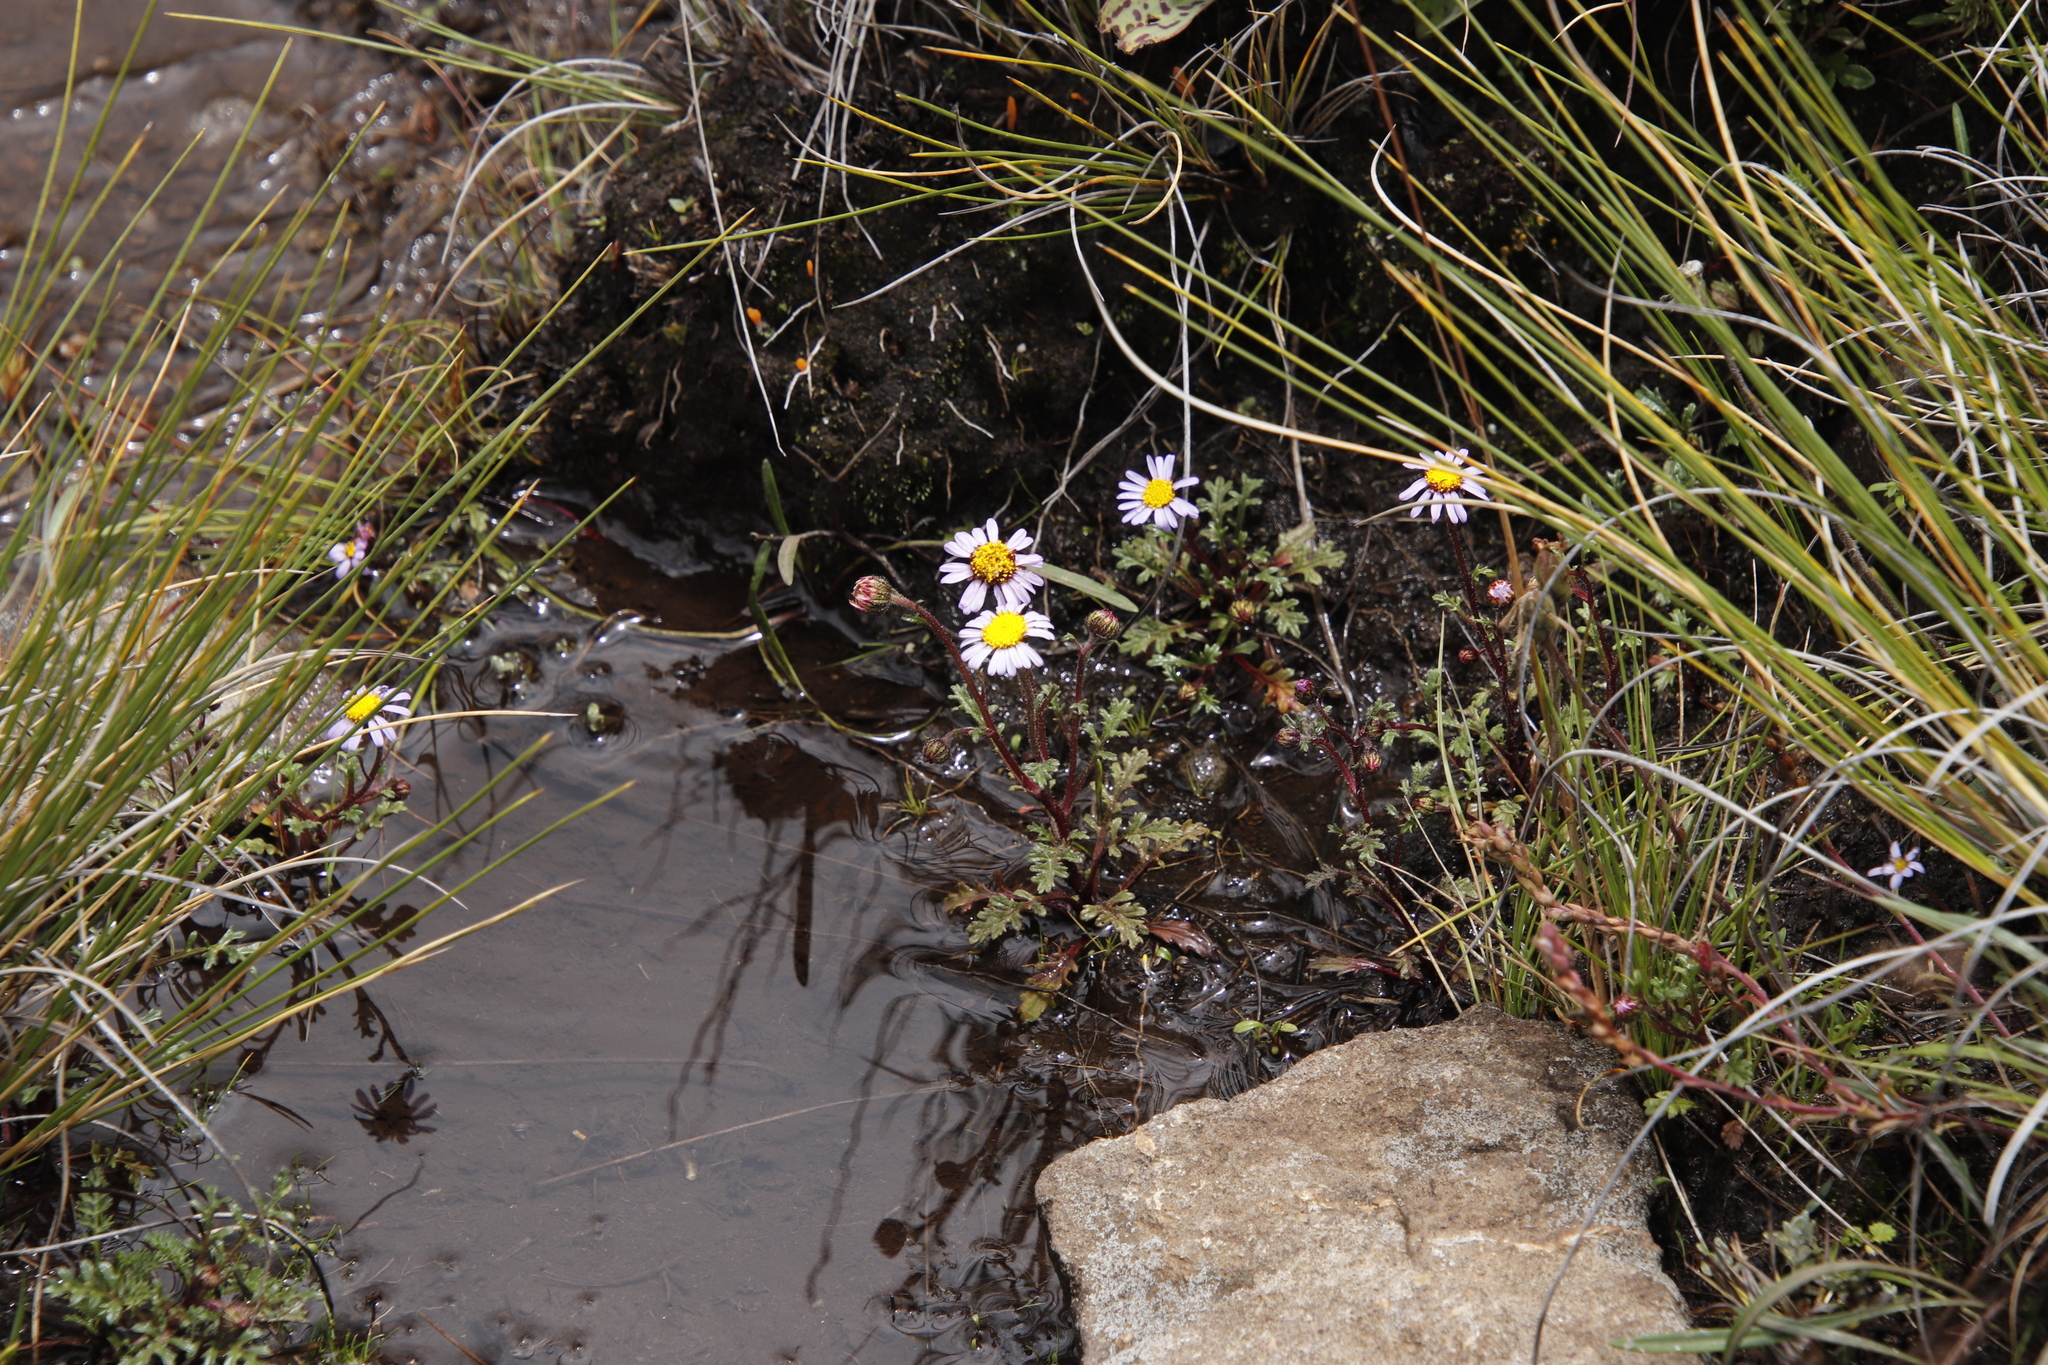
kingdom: Plantae
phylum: Tracheophyta
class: Magnoliopsida
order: Asterales
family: Asteraceae
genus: Afroaster
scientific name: Afroaster erucifolius
